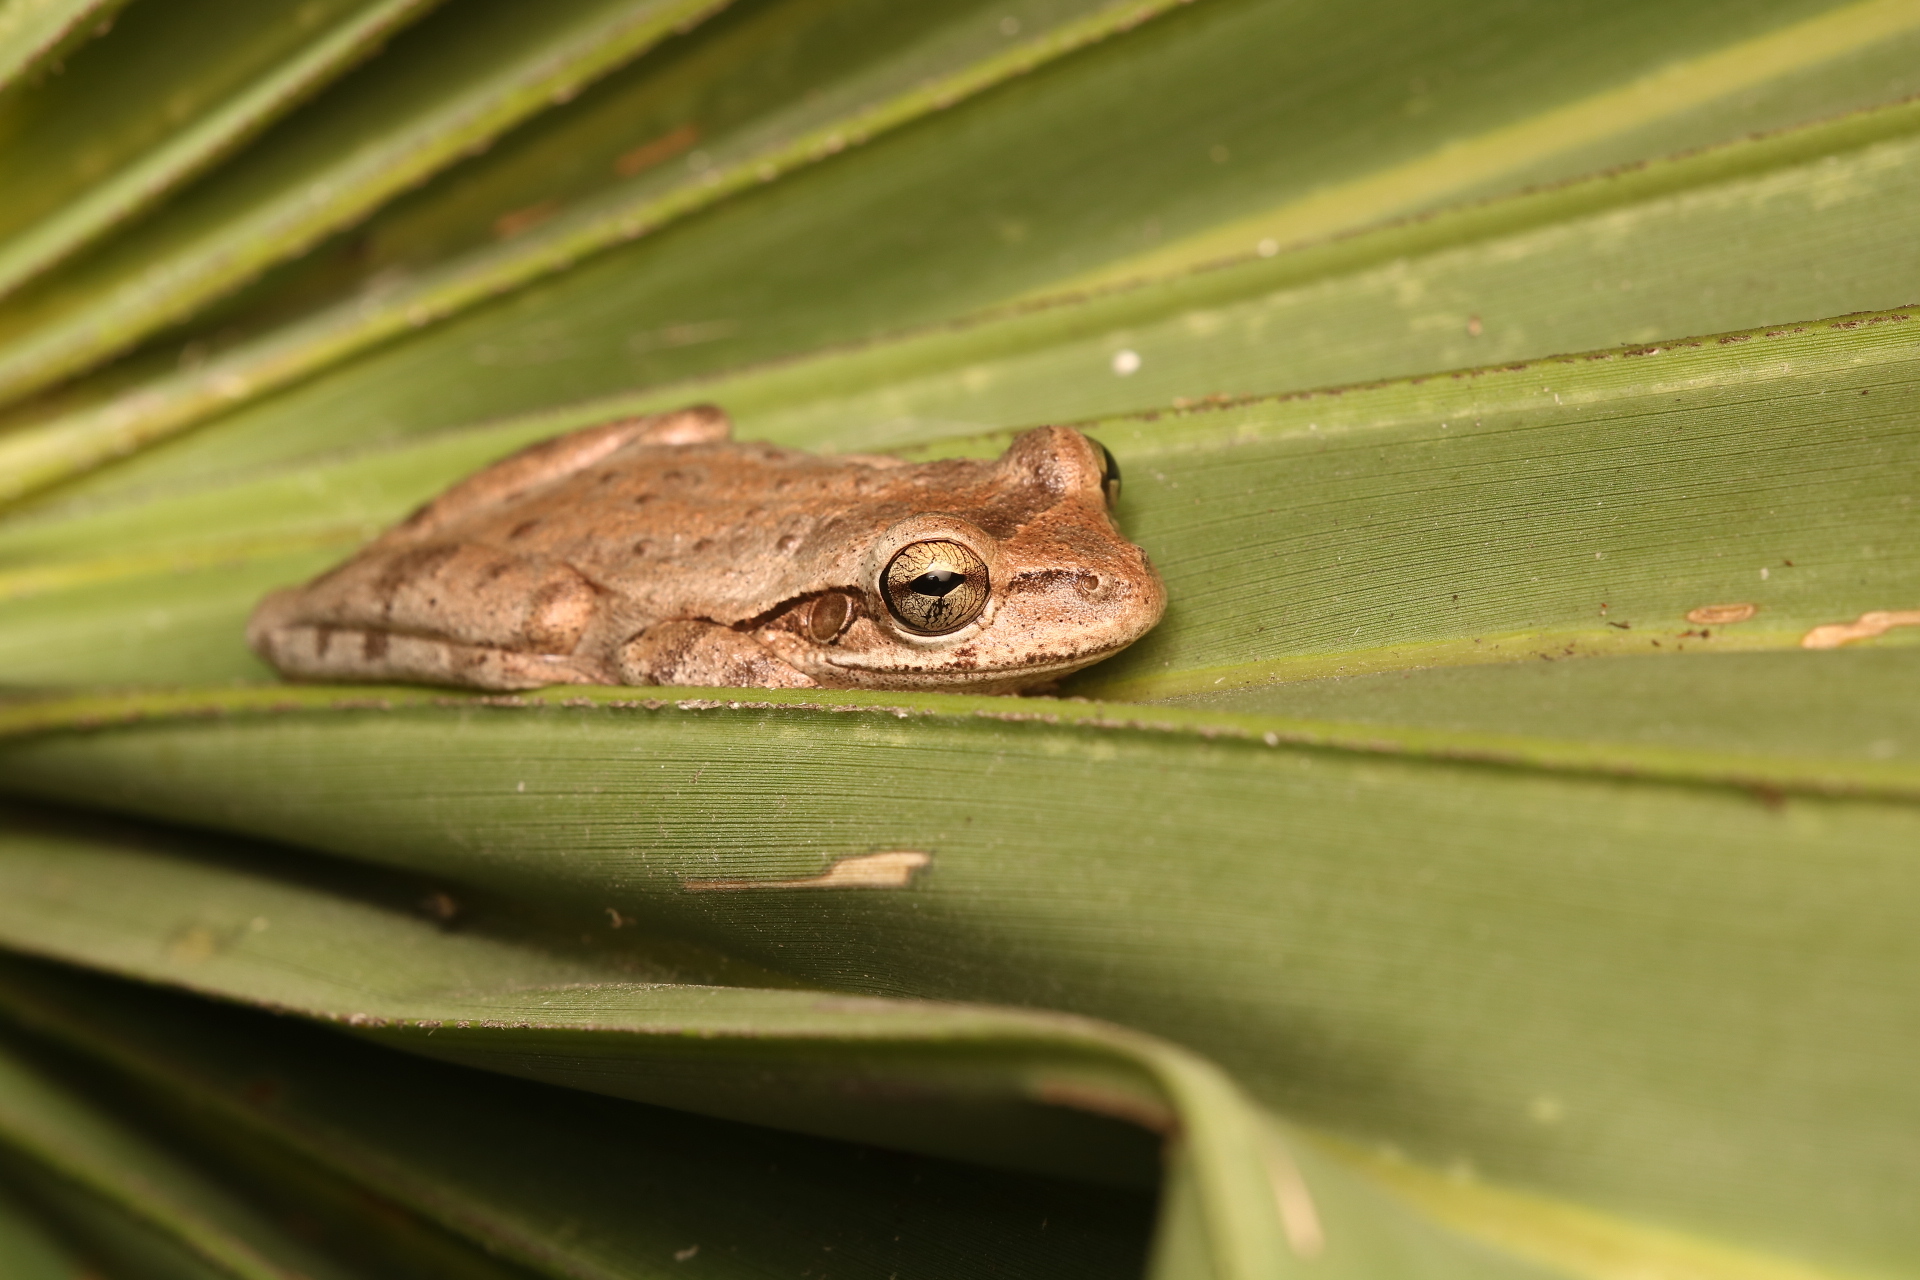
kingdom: Animalia
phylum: Chordata
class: Amphibia
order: Anura
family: Hylidae
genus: Osteopilus
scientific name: Osteopilus septentrionalis
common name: Cuban treefrog
